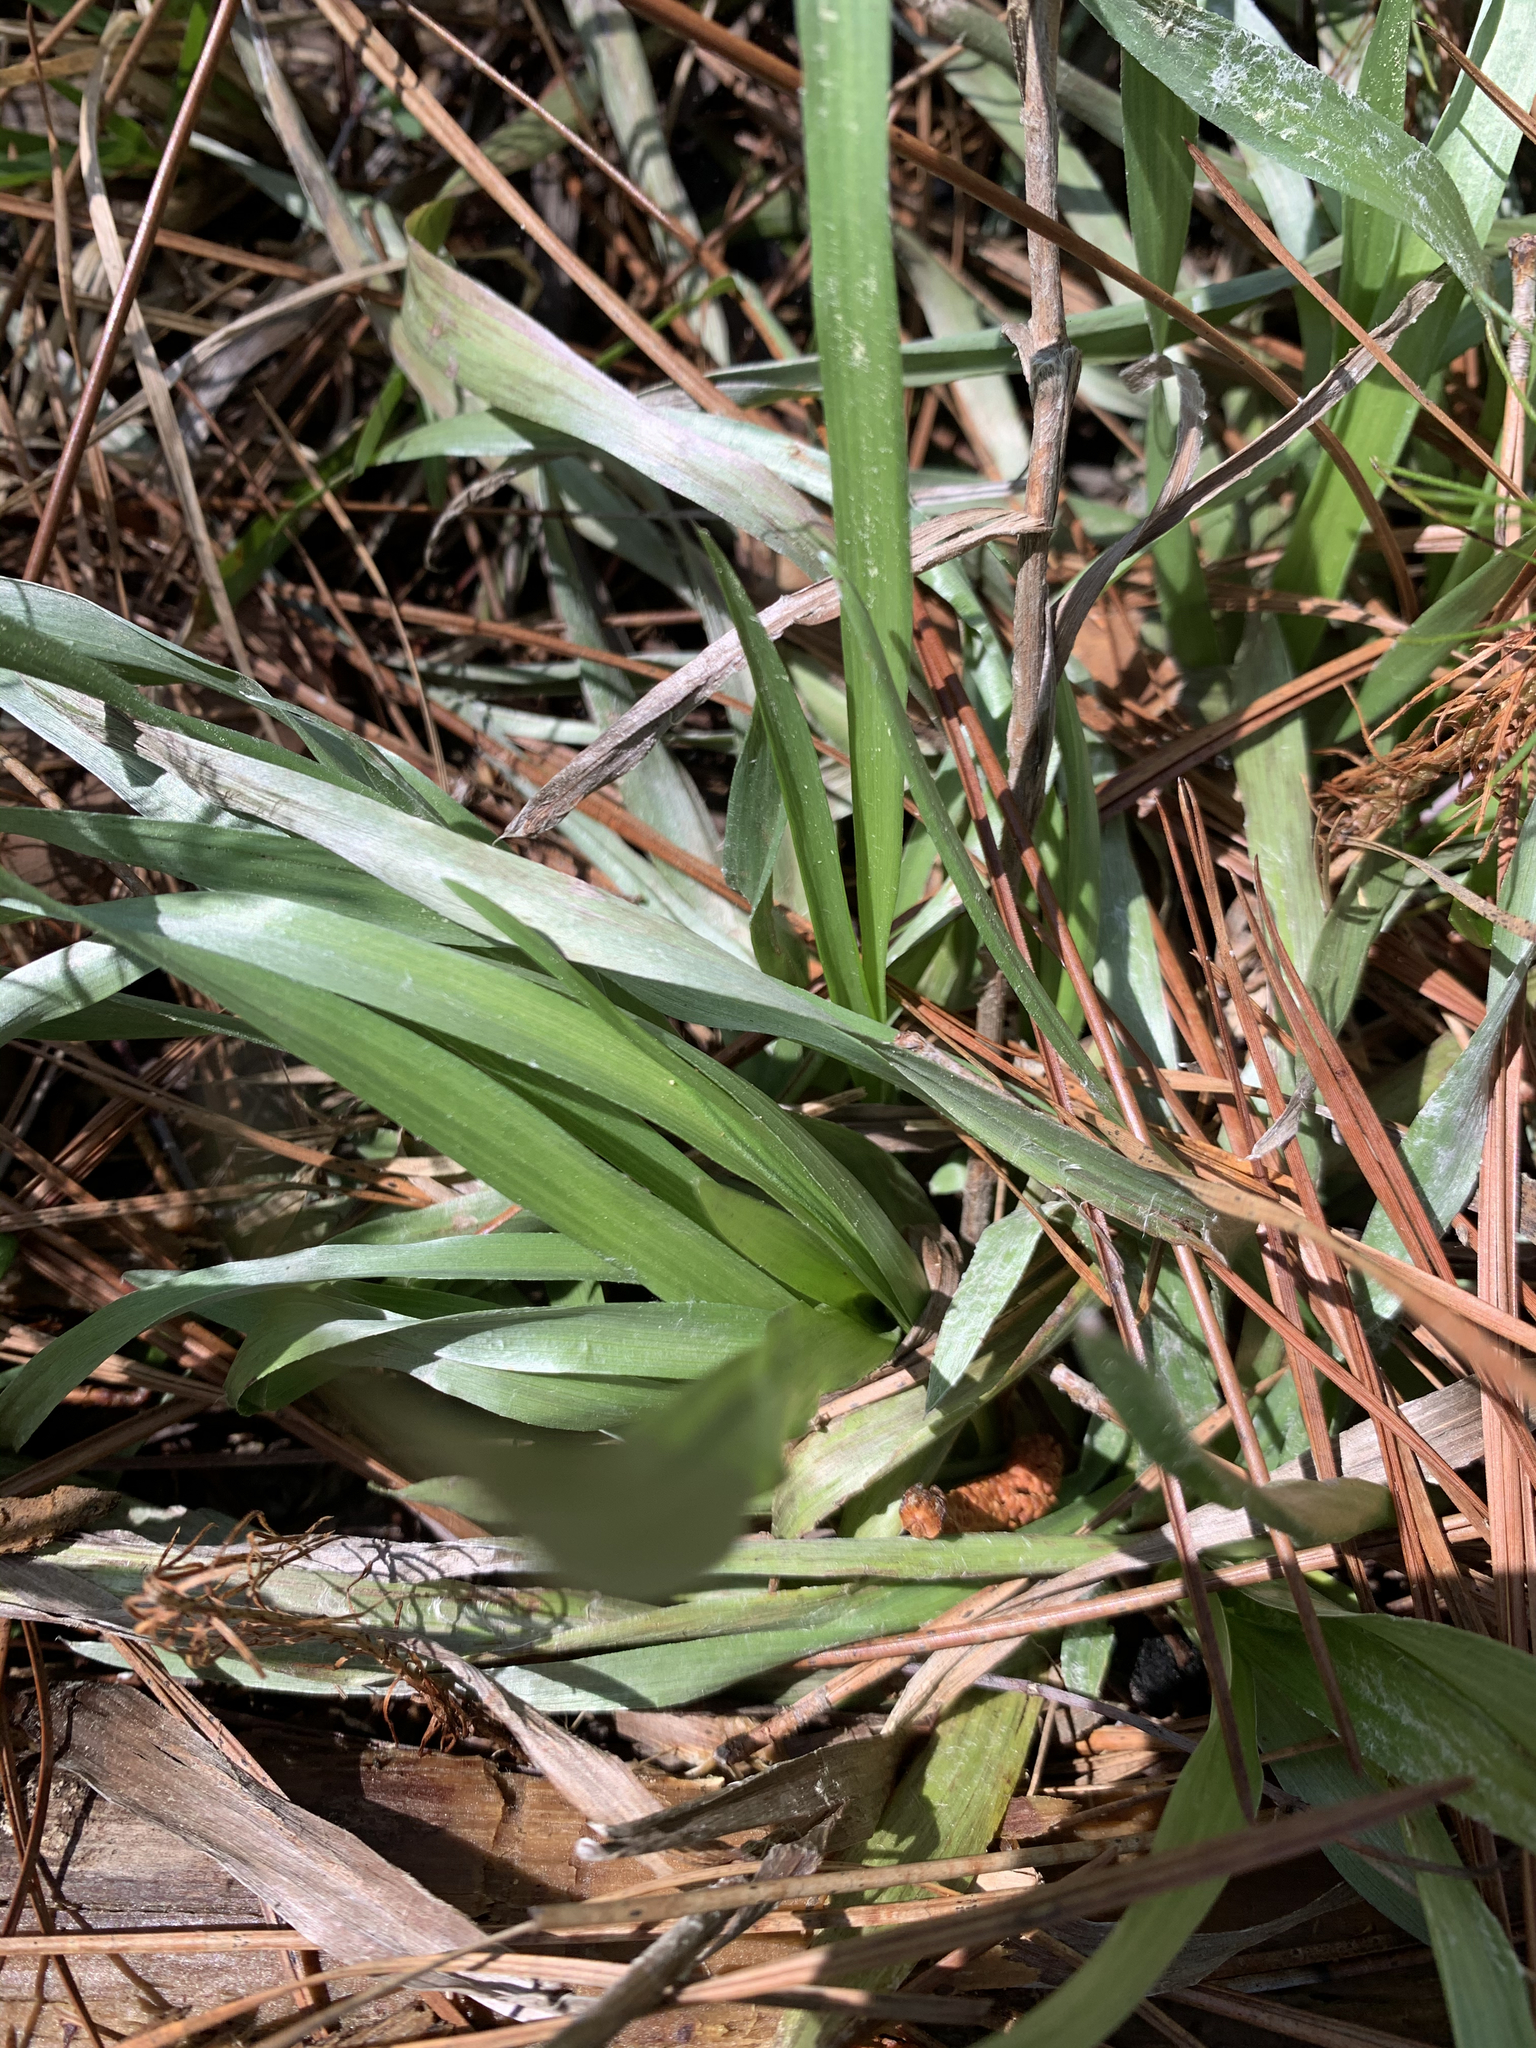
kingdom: Plantae
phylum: Tracheophyta
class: Magnoliopsida
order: Asterales
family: Asteraceae
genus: Pityopsis
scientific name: Pityopsis
